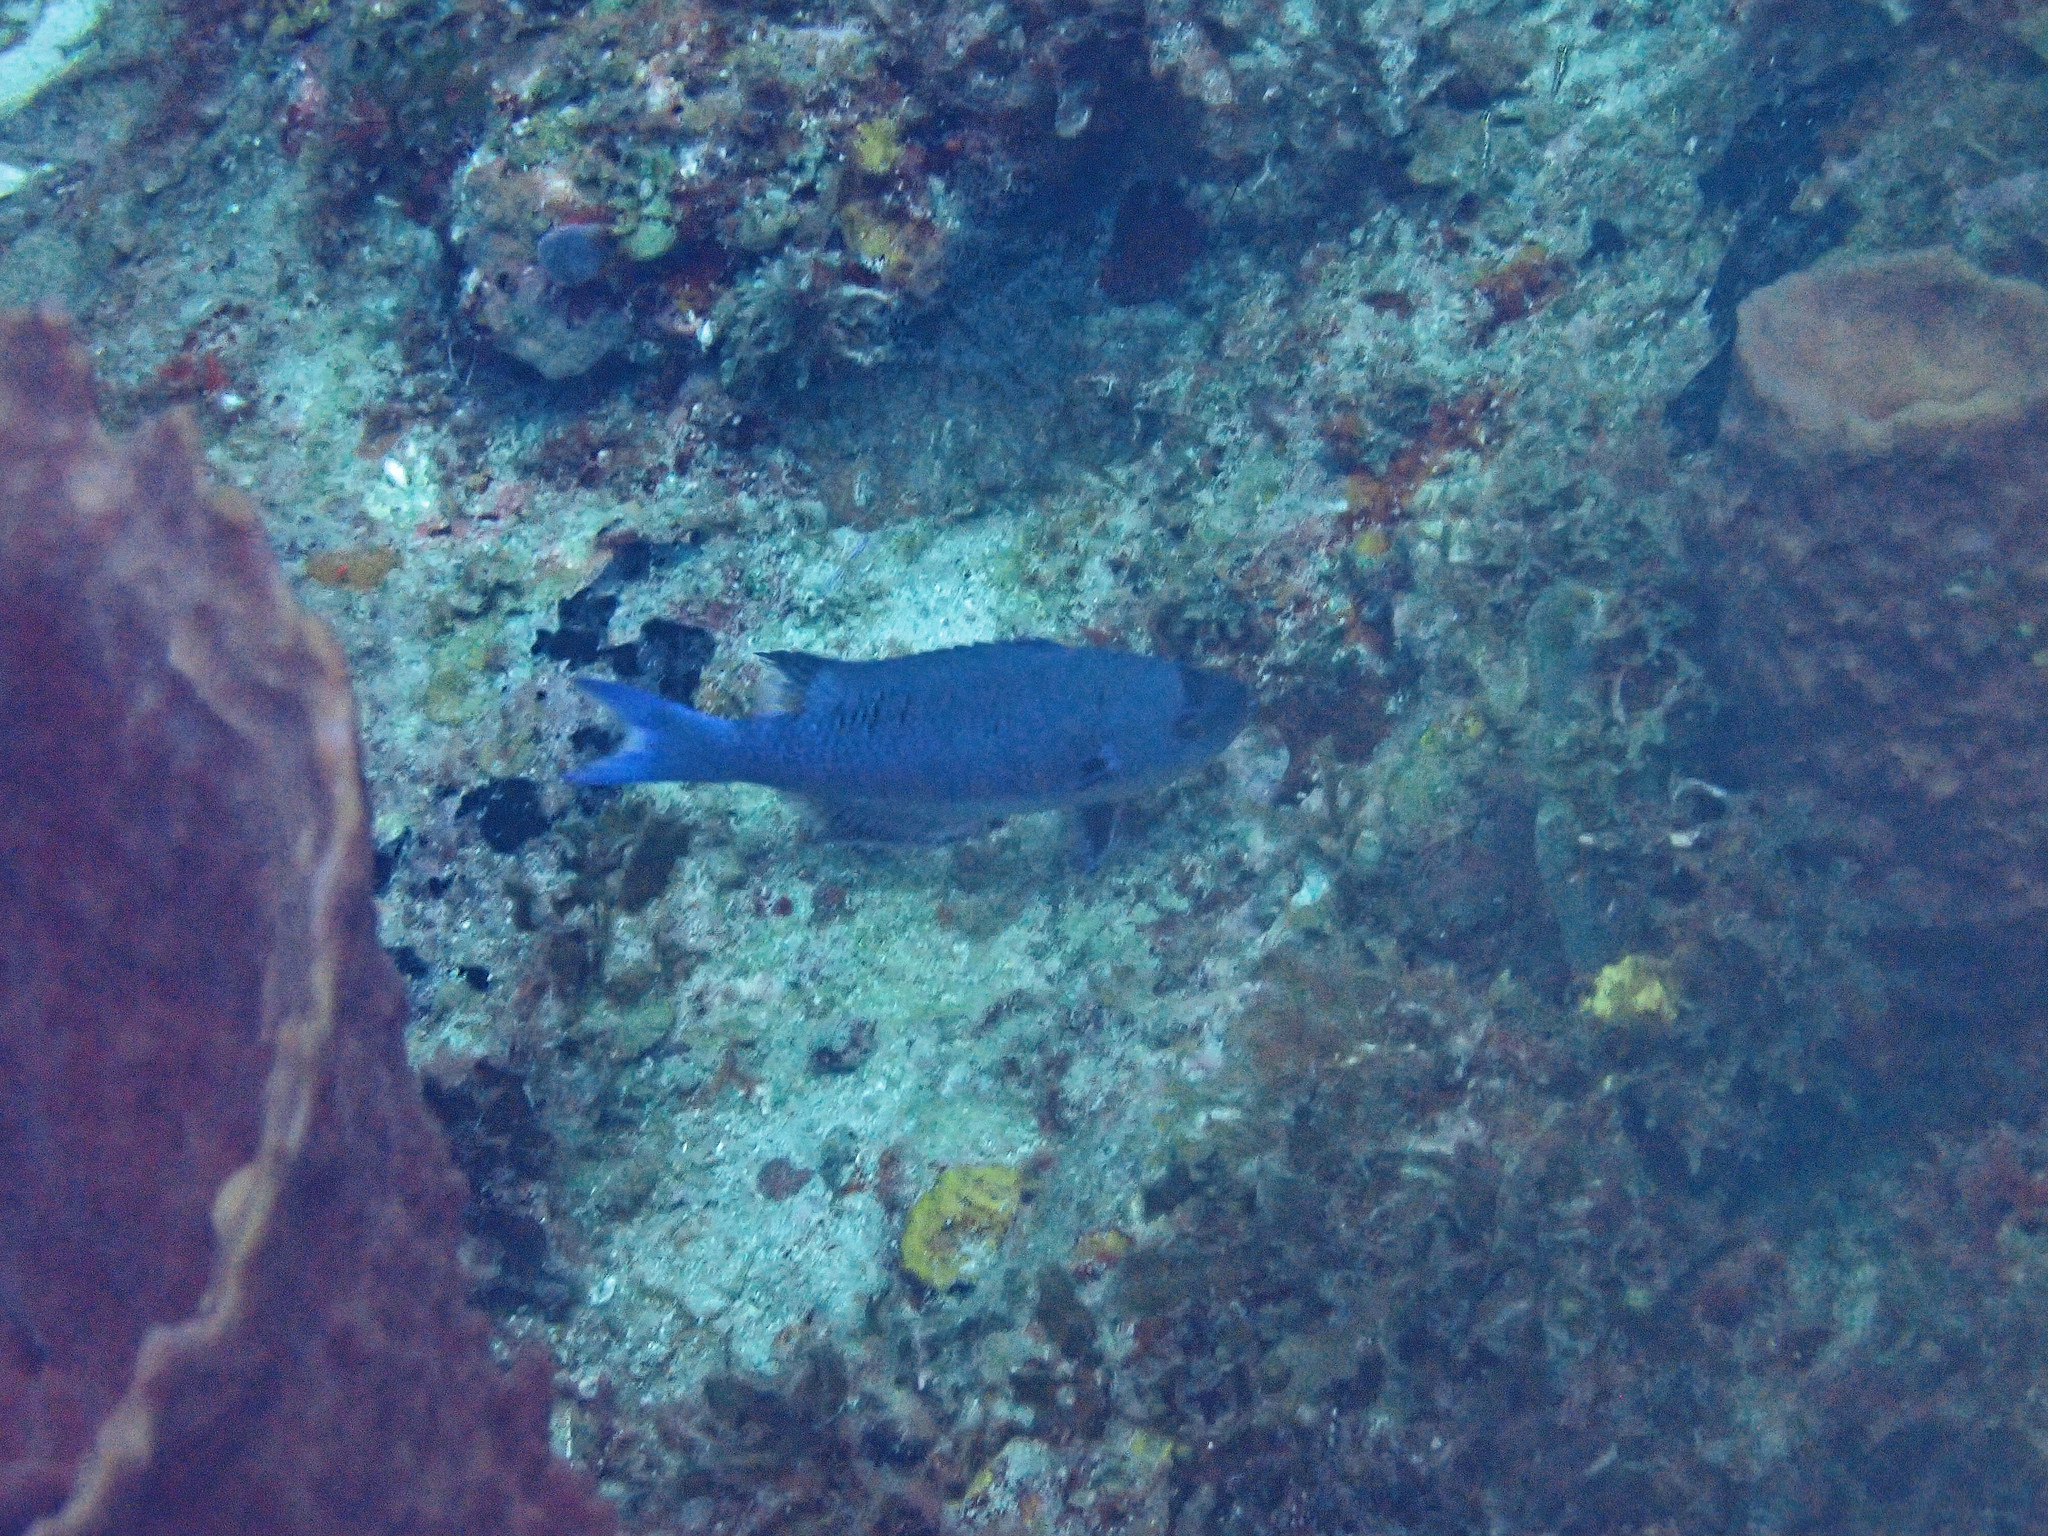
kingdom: Animalia
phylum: Chordata
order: Perciformes
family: Labridae
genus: Bodianus
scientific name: Bodianus
